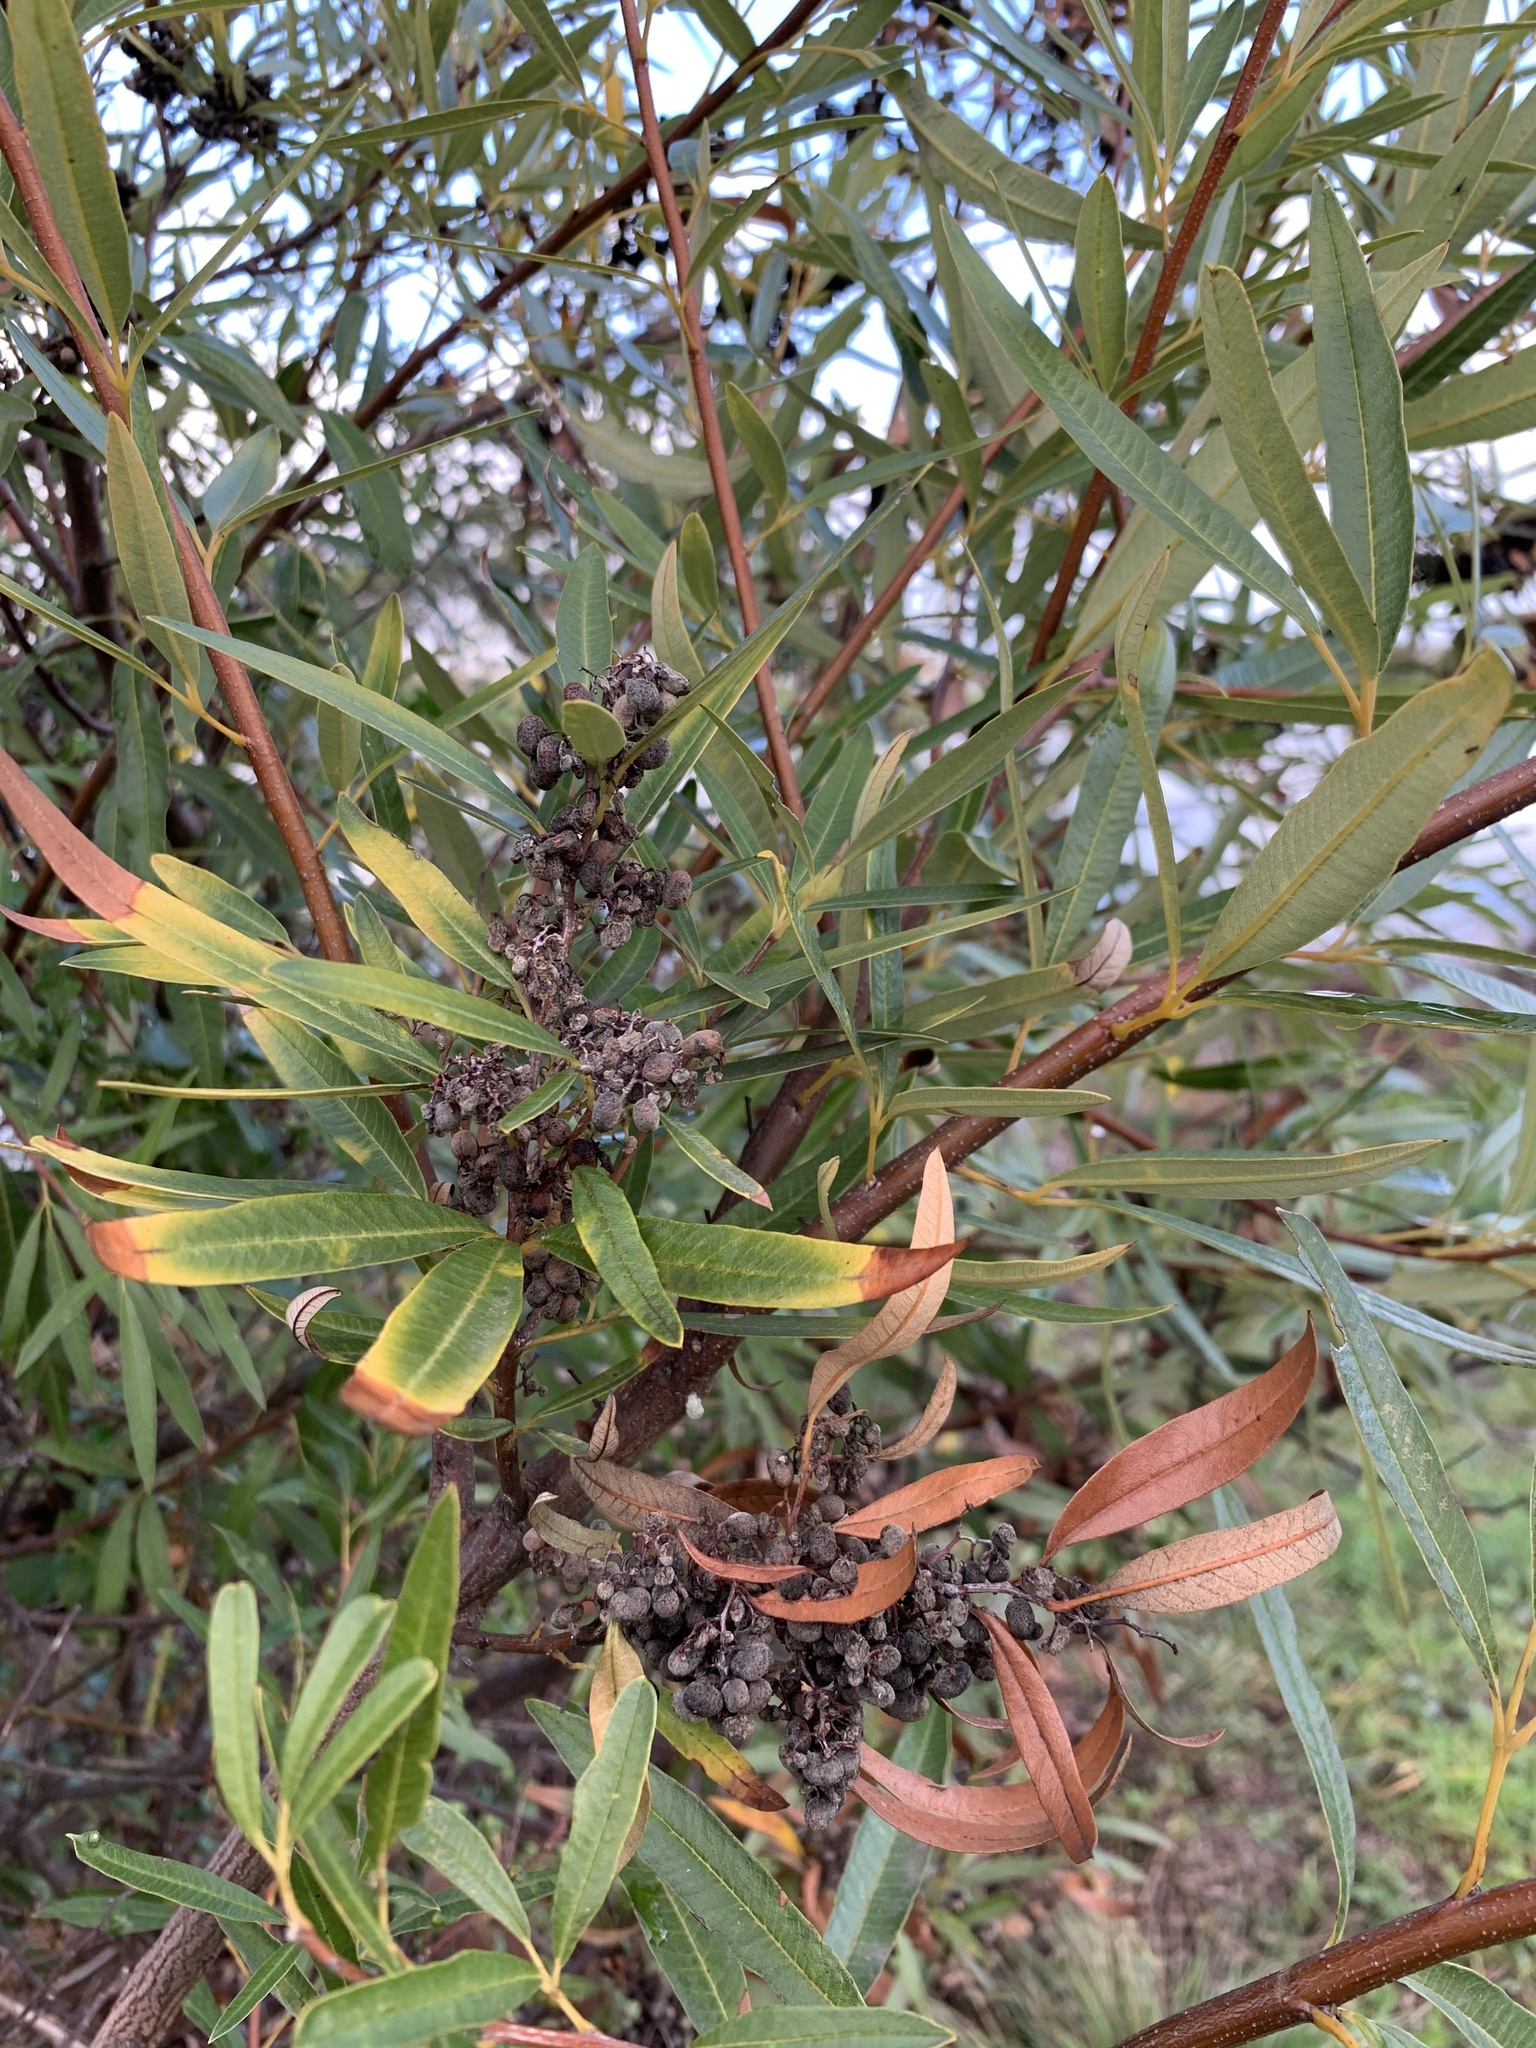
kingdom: Plantae
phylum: Tracheophyta
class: Magnoliopsida
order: Sapindales
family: Anacardiaceae
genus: Searsia
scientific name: Searsia angustifolia
